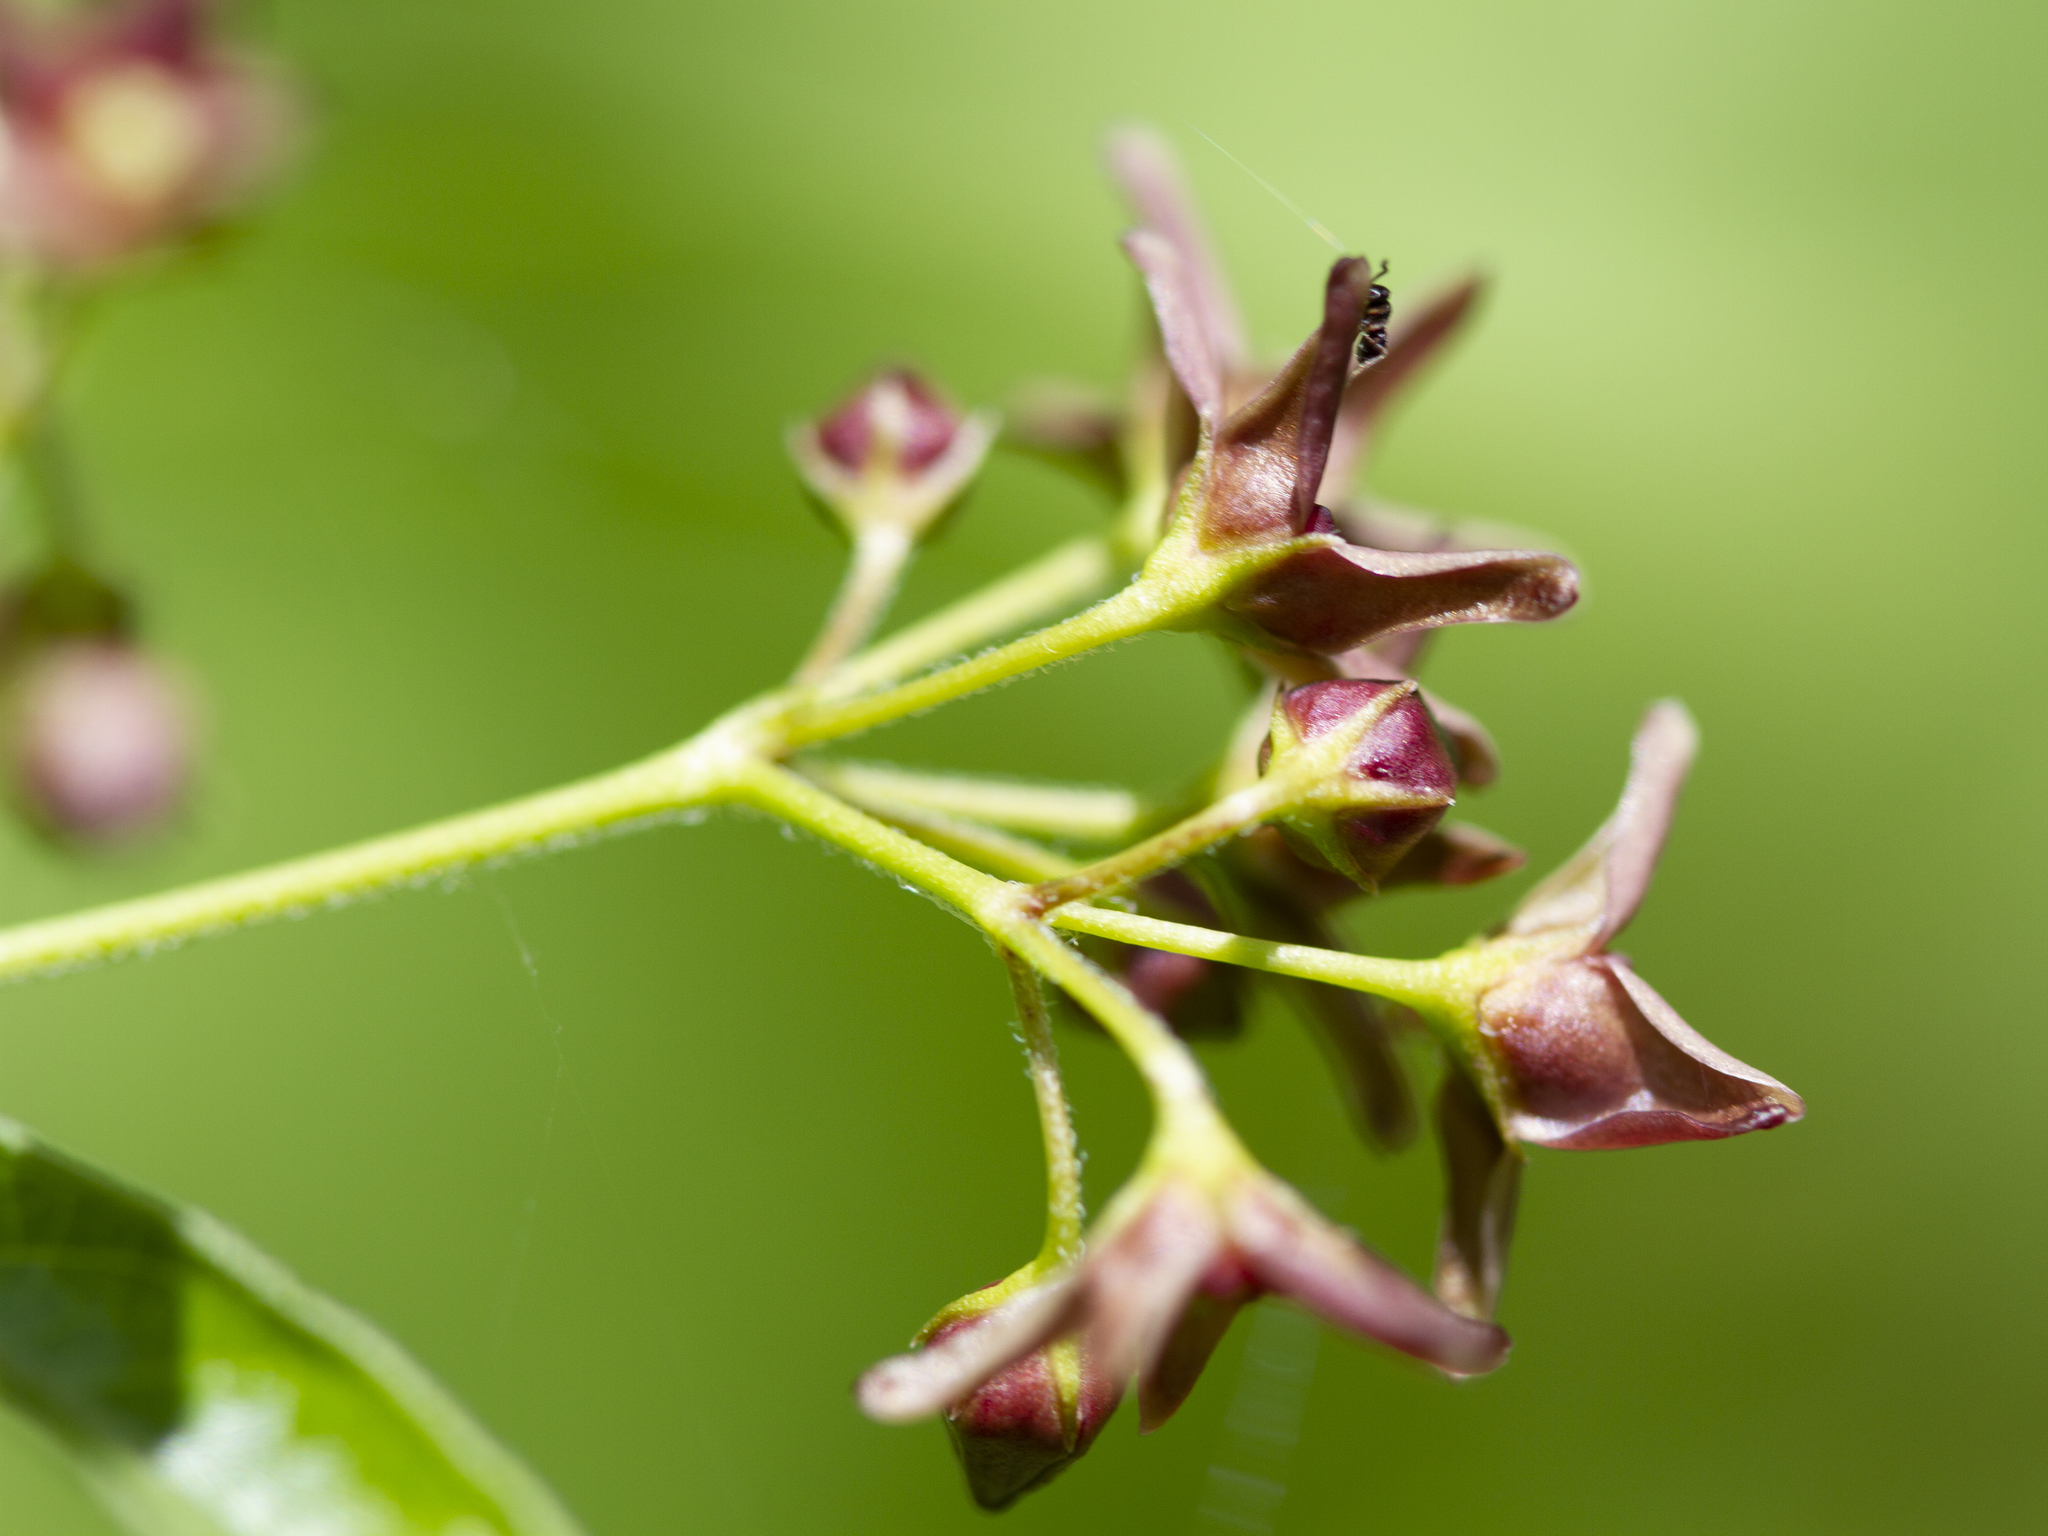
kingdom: Plantae
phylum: Tracheophyta
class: Magnoliopsida
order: Gentianales
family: Apocynaceae
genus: Vincetoxicum
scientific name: Vincetoxicum rossicum
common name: Dog-strangling vine
